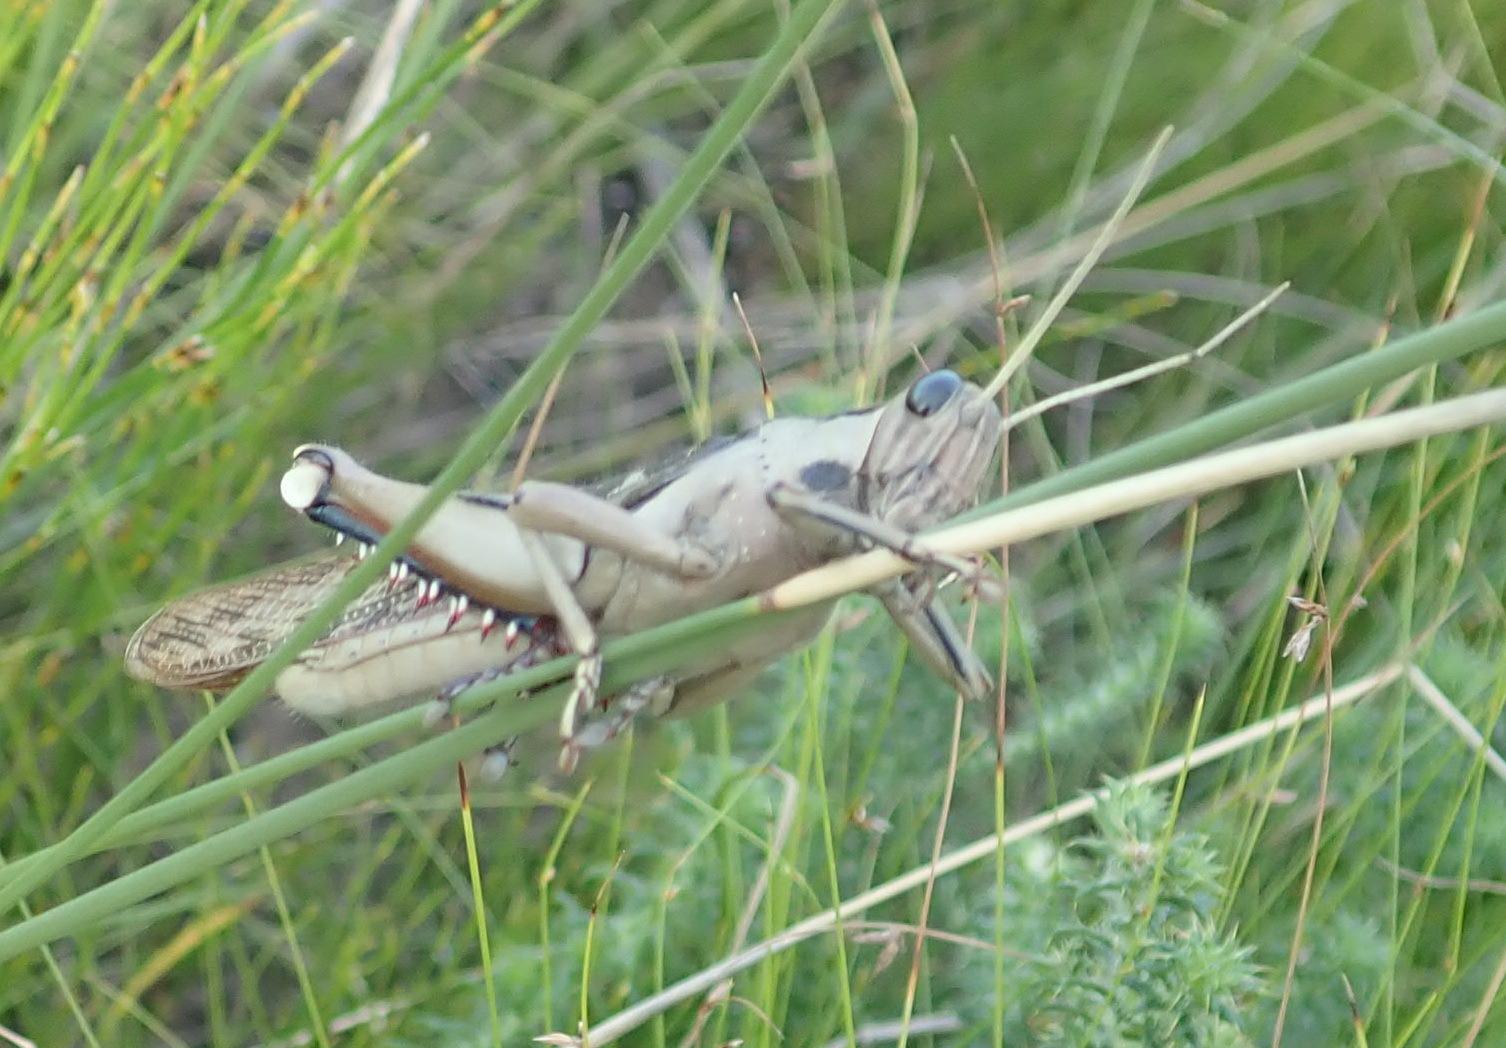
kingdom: Animalia
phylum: Arthropoda
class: Insecta
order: Orthoptera
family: Acrididae
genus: Acanthacris
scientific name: Acanthacris ruficornis
